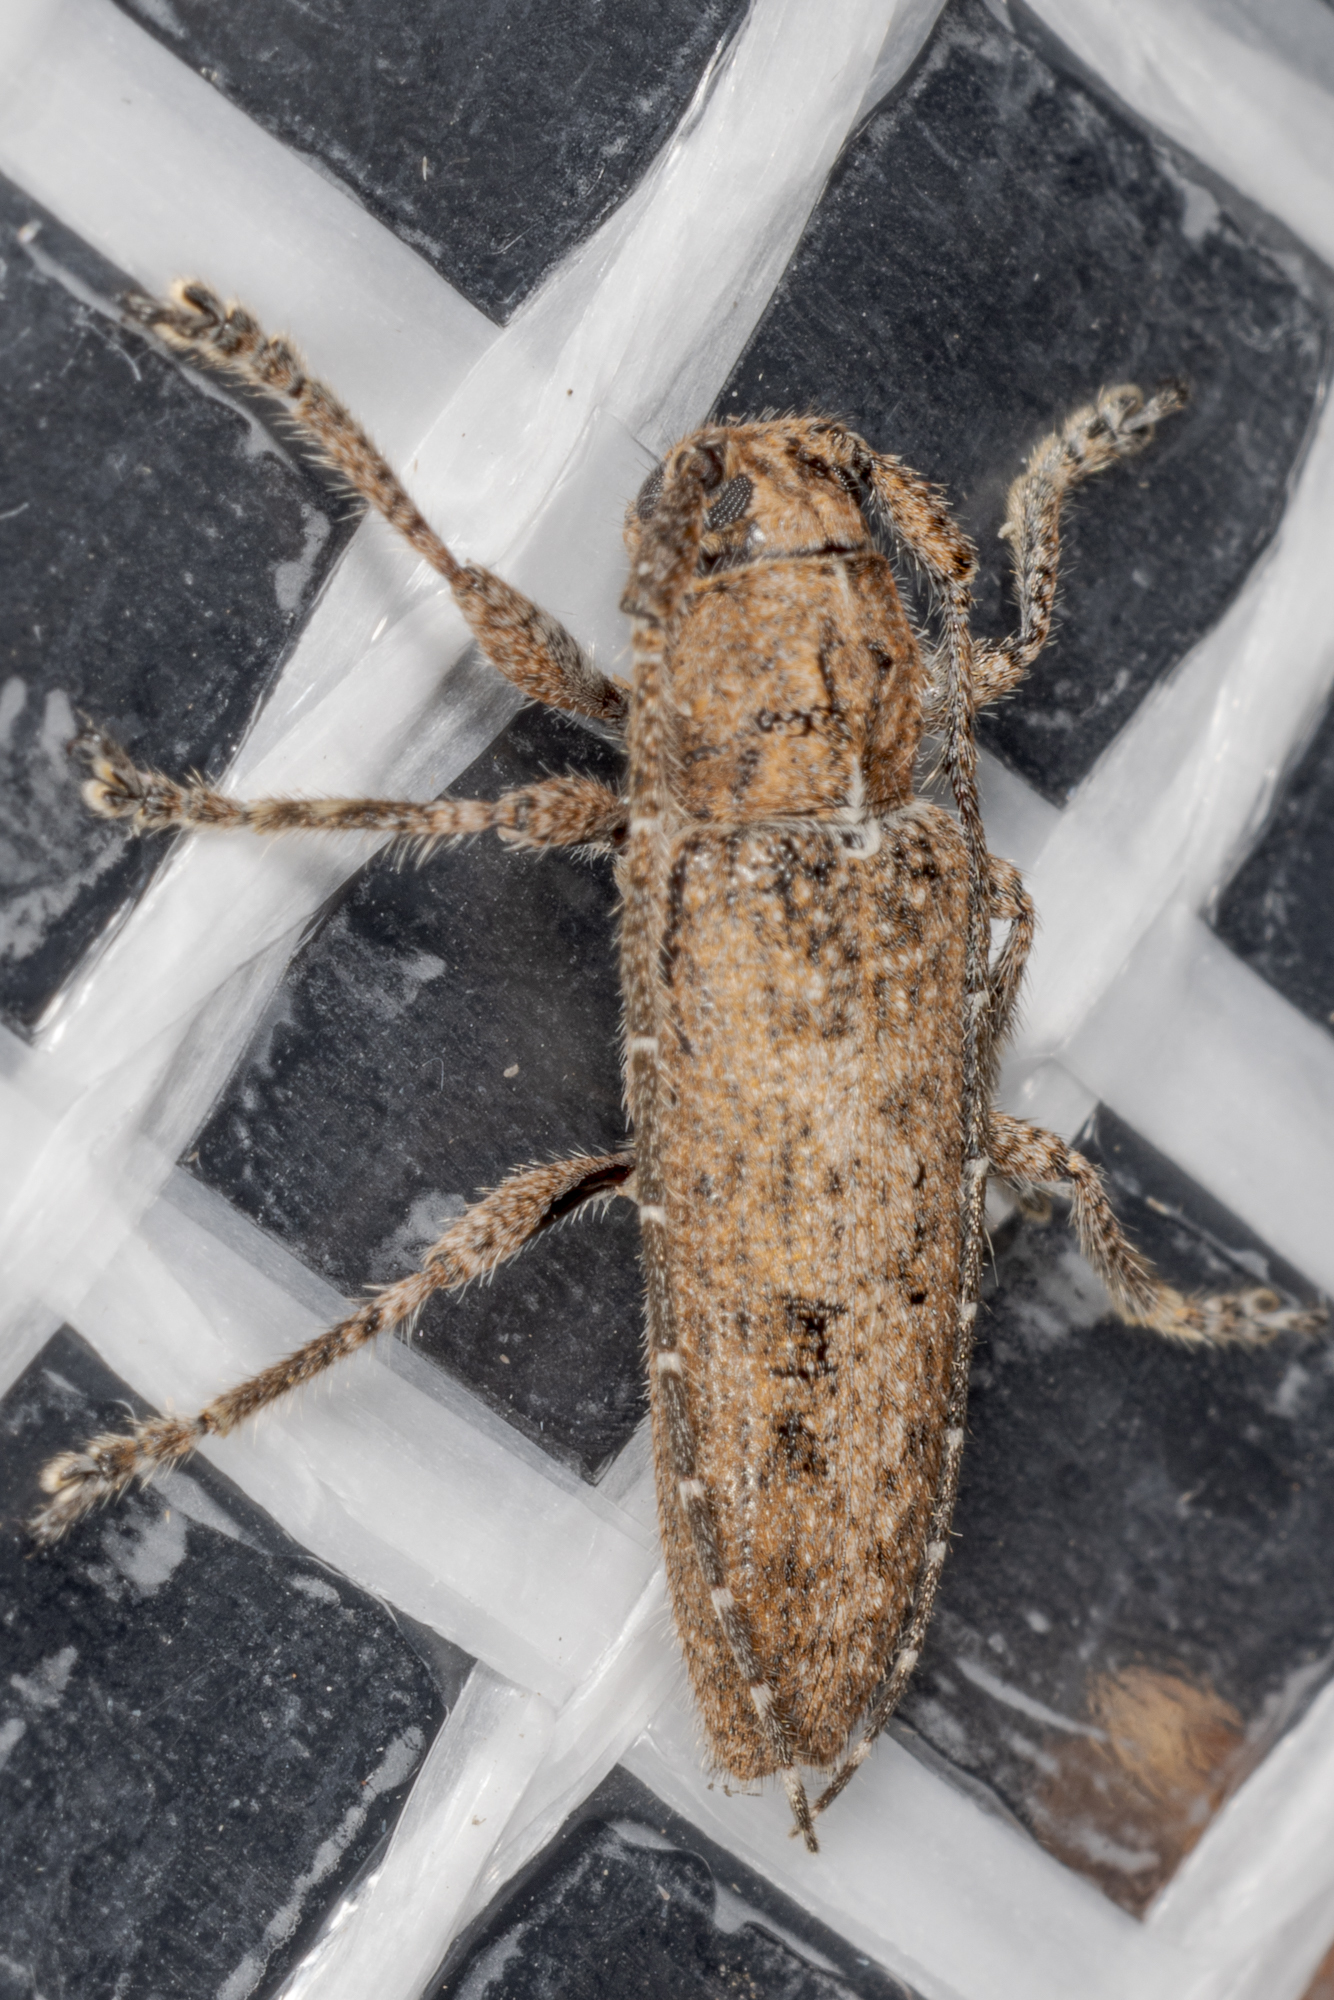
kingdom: Animalia
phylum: Arthropoda
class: Insecta
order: Coleoptera
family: Cerambycidae
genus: Ataxia
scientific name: Ataxia crypta
